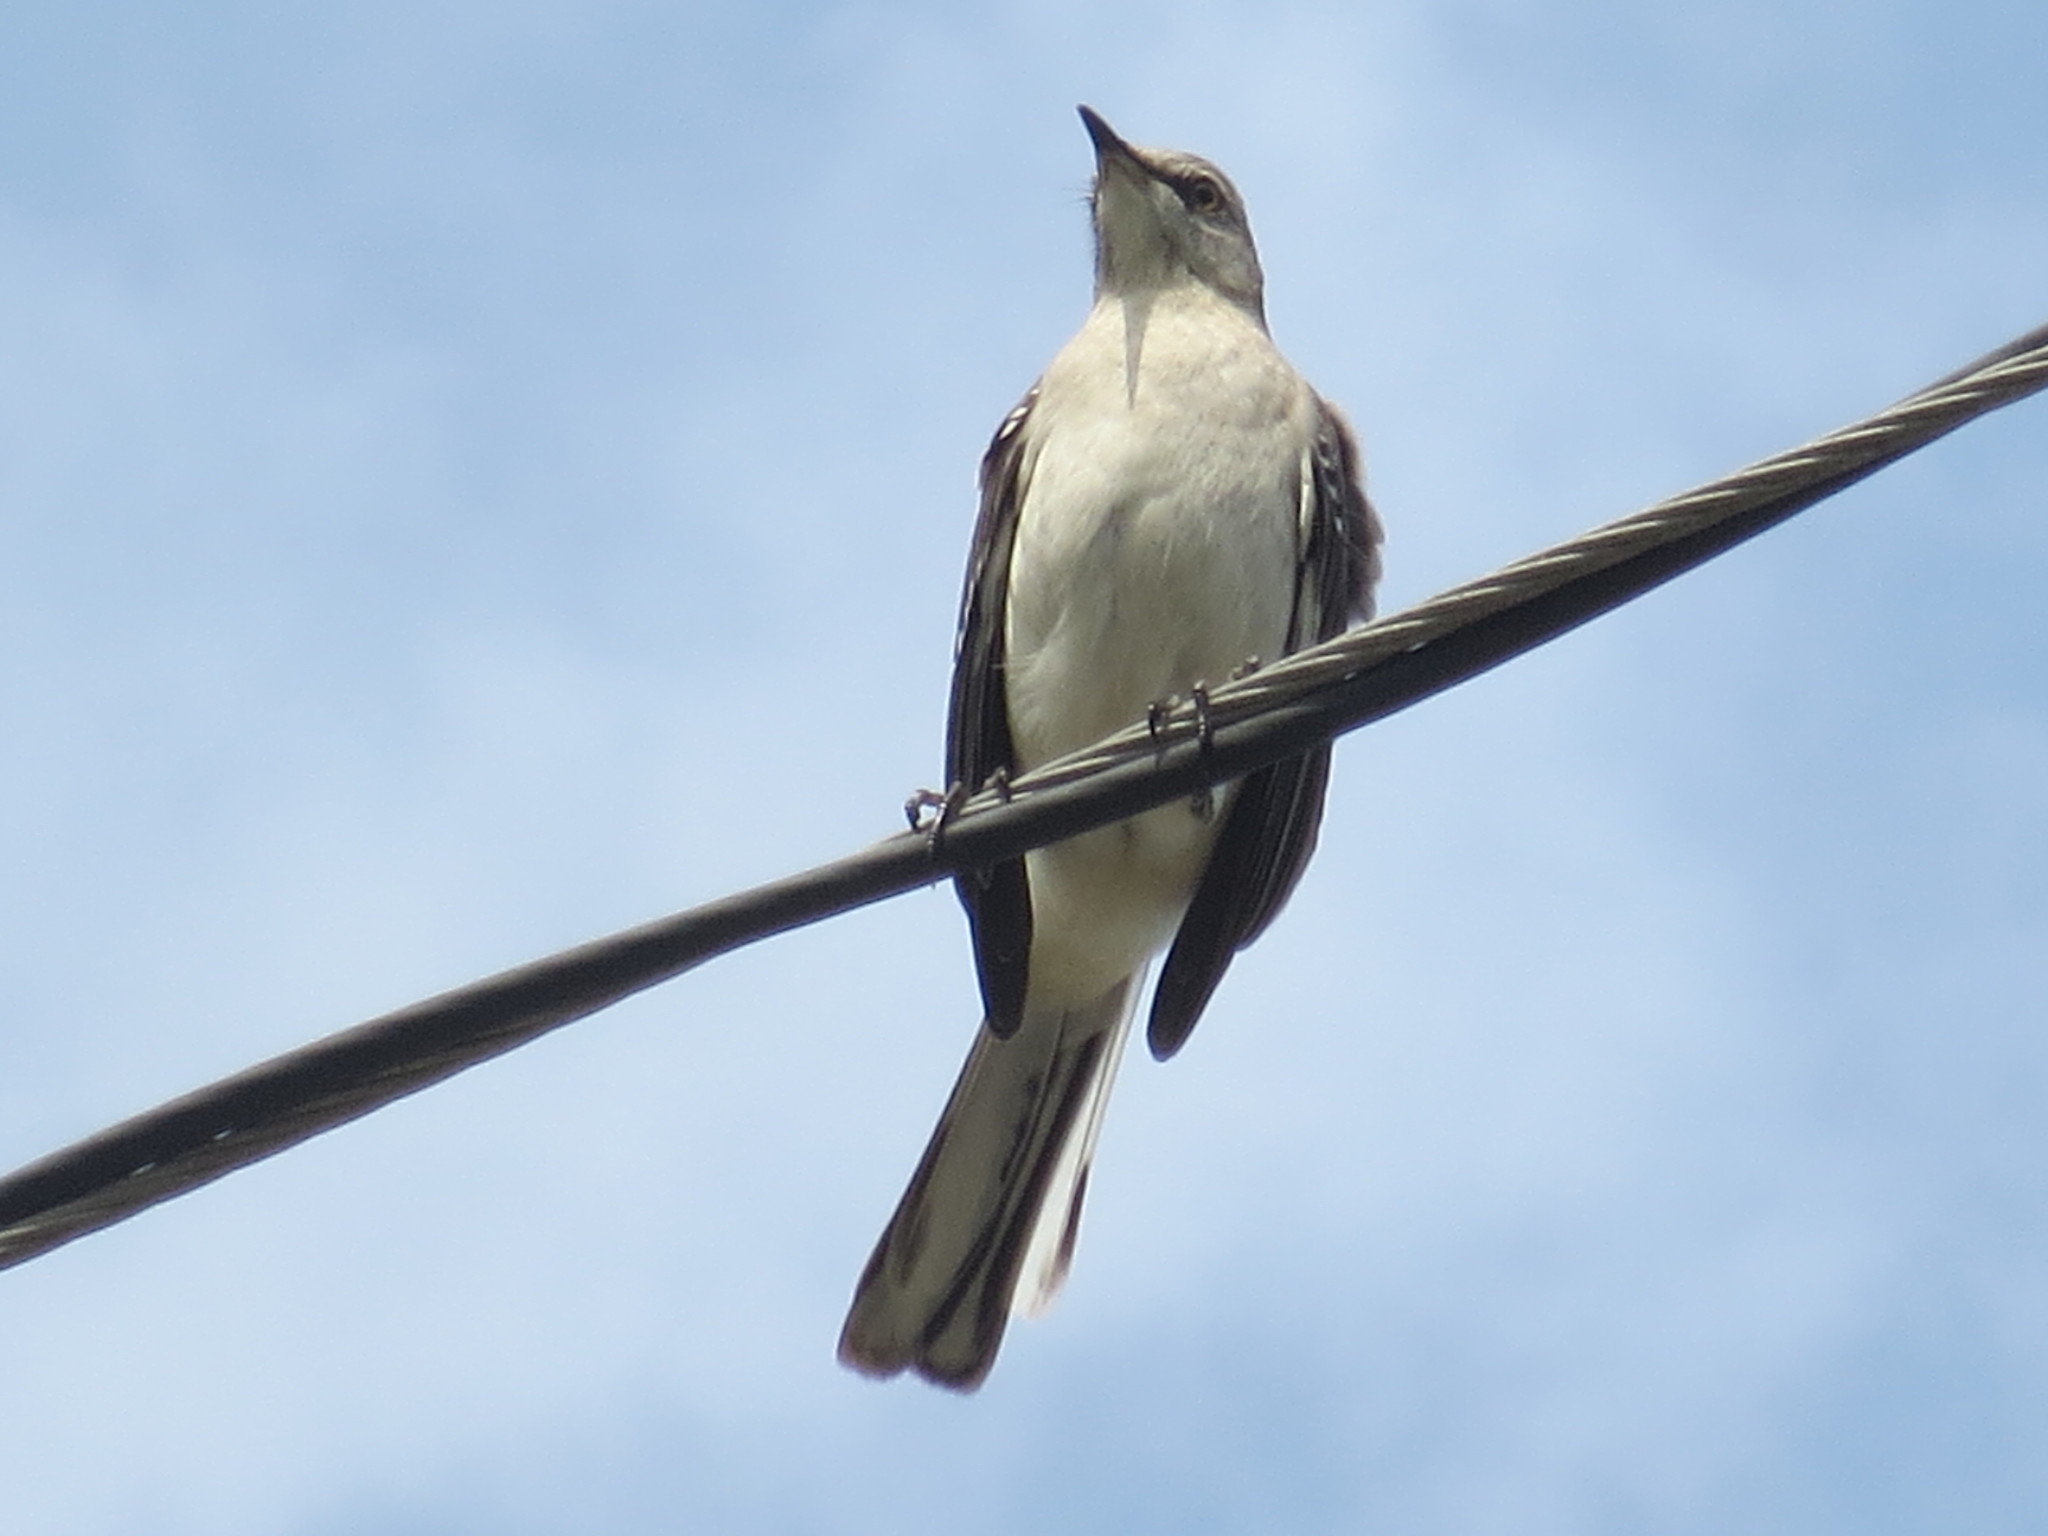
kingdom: Animalia
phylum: Chordata
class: Aves
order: Passeriformes
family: Mimidae
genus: Mimus
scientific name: Mimus polyglottos
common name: Northern mockingbird
